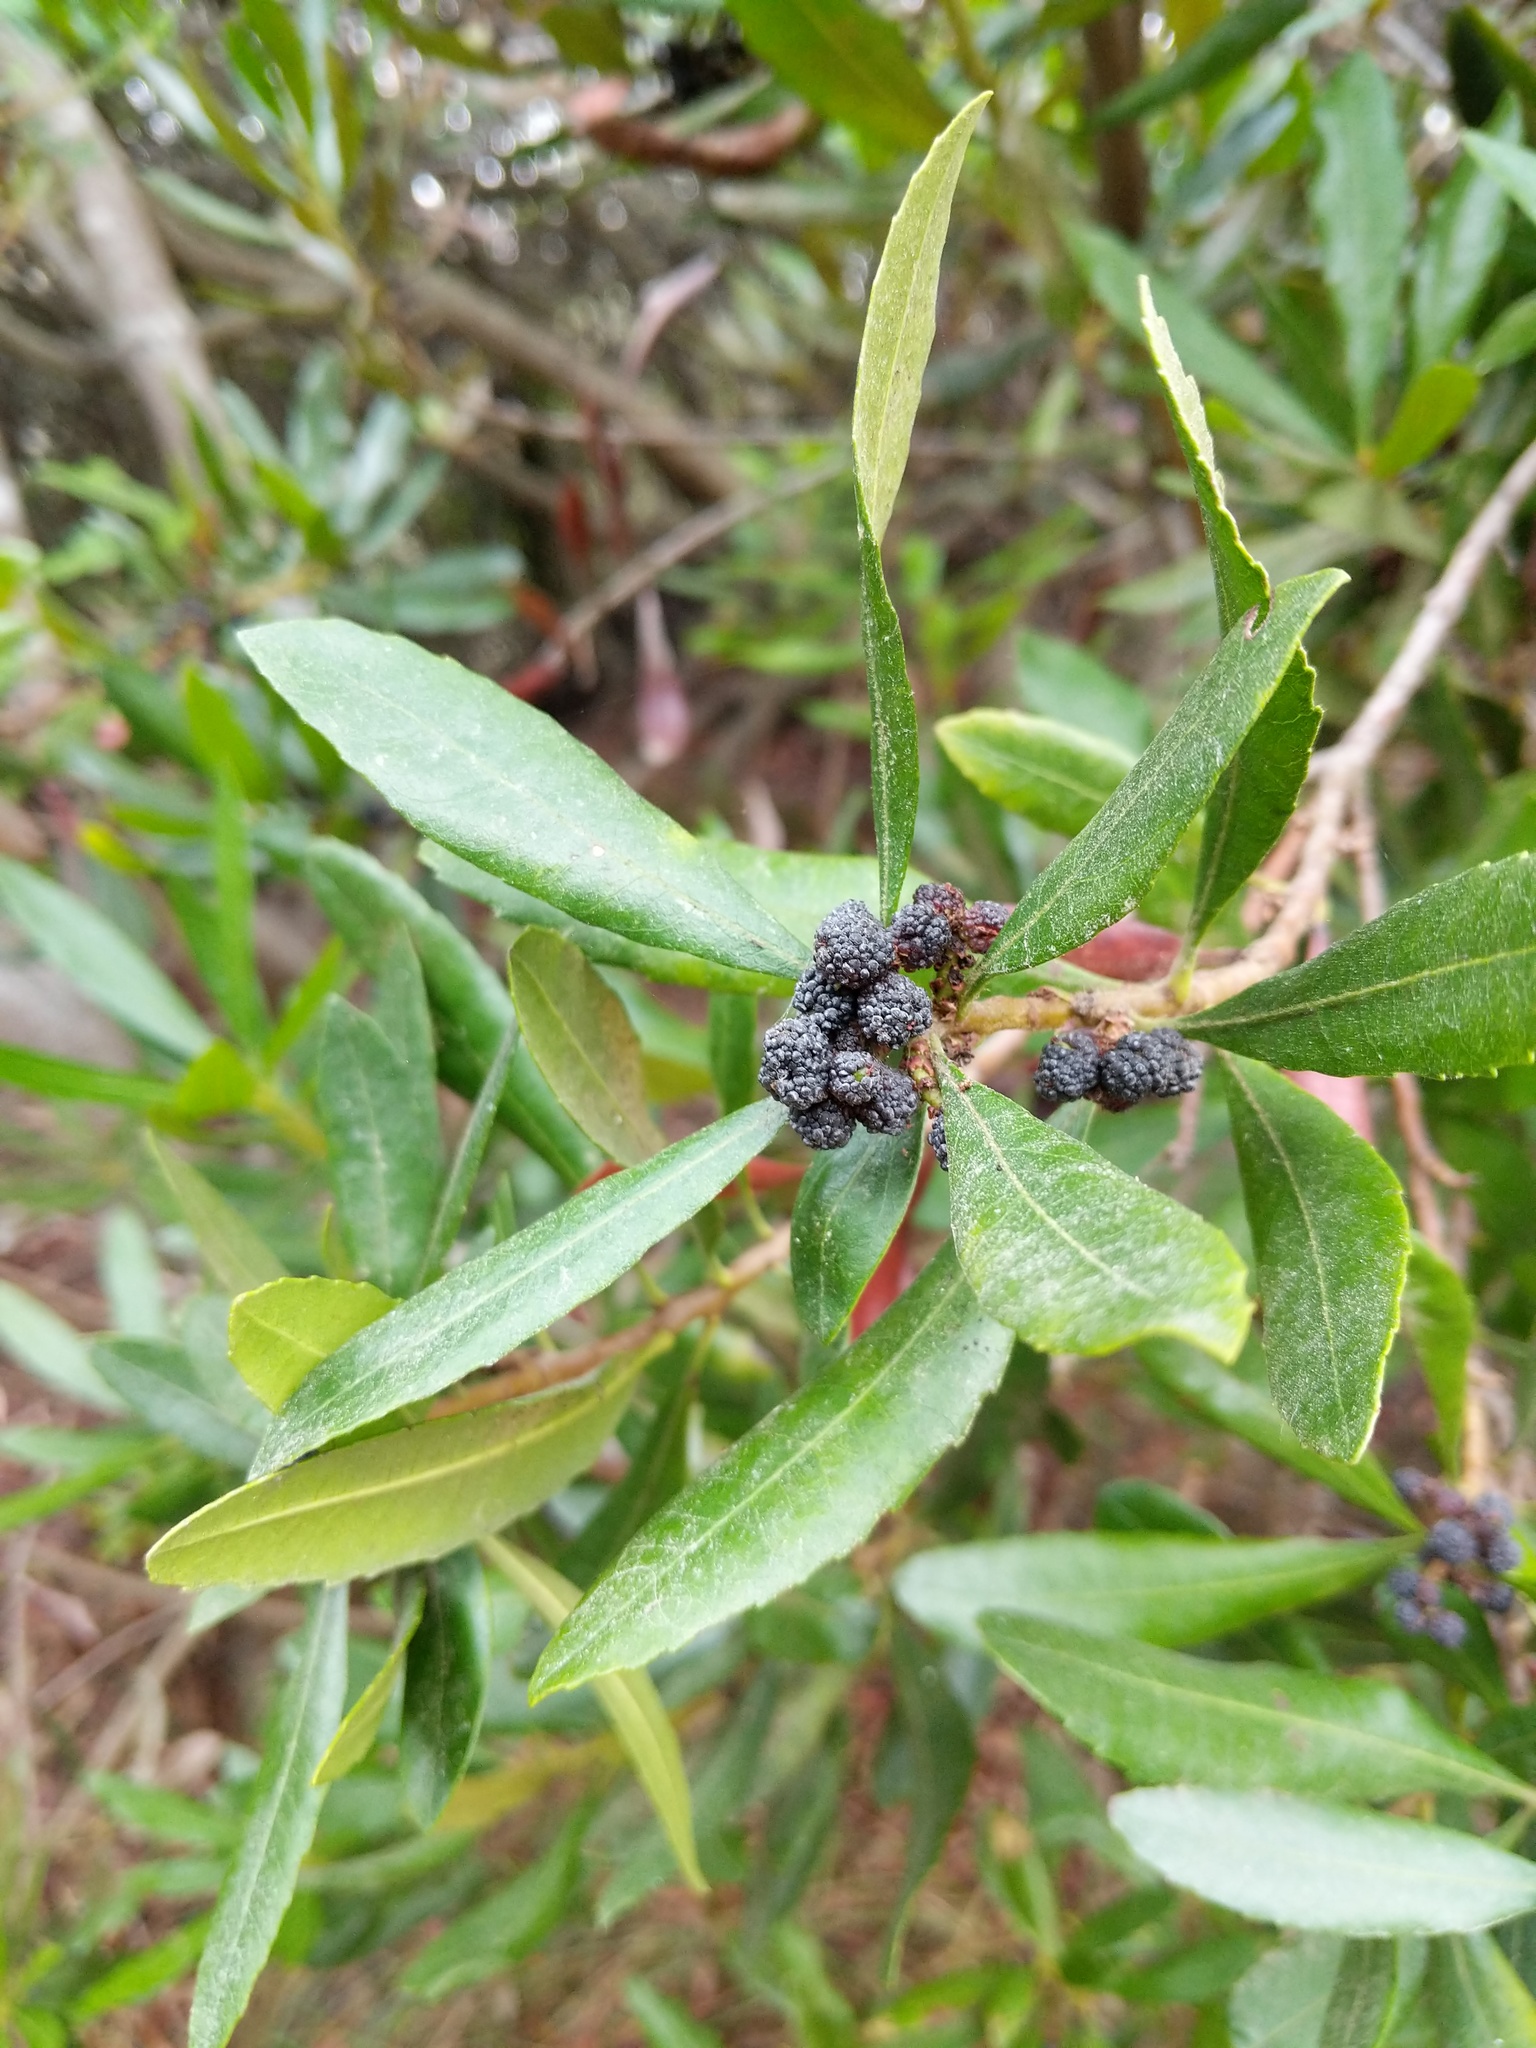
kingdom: Plantae
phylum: Tracheophyta
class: Magnoliopsida
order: Fagales
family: Myricaceae
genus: Morella
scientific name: Morella californica
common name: California wax-myrtle
